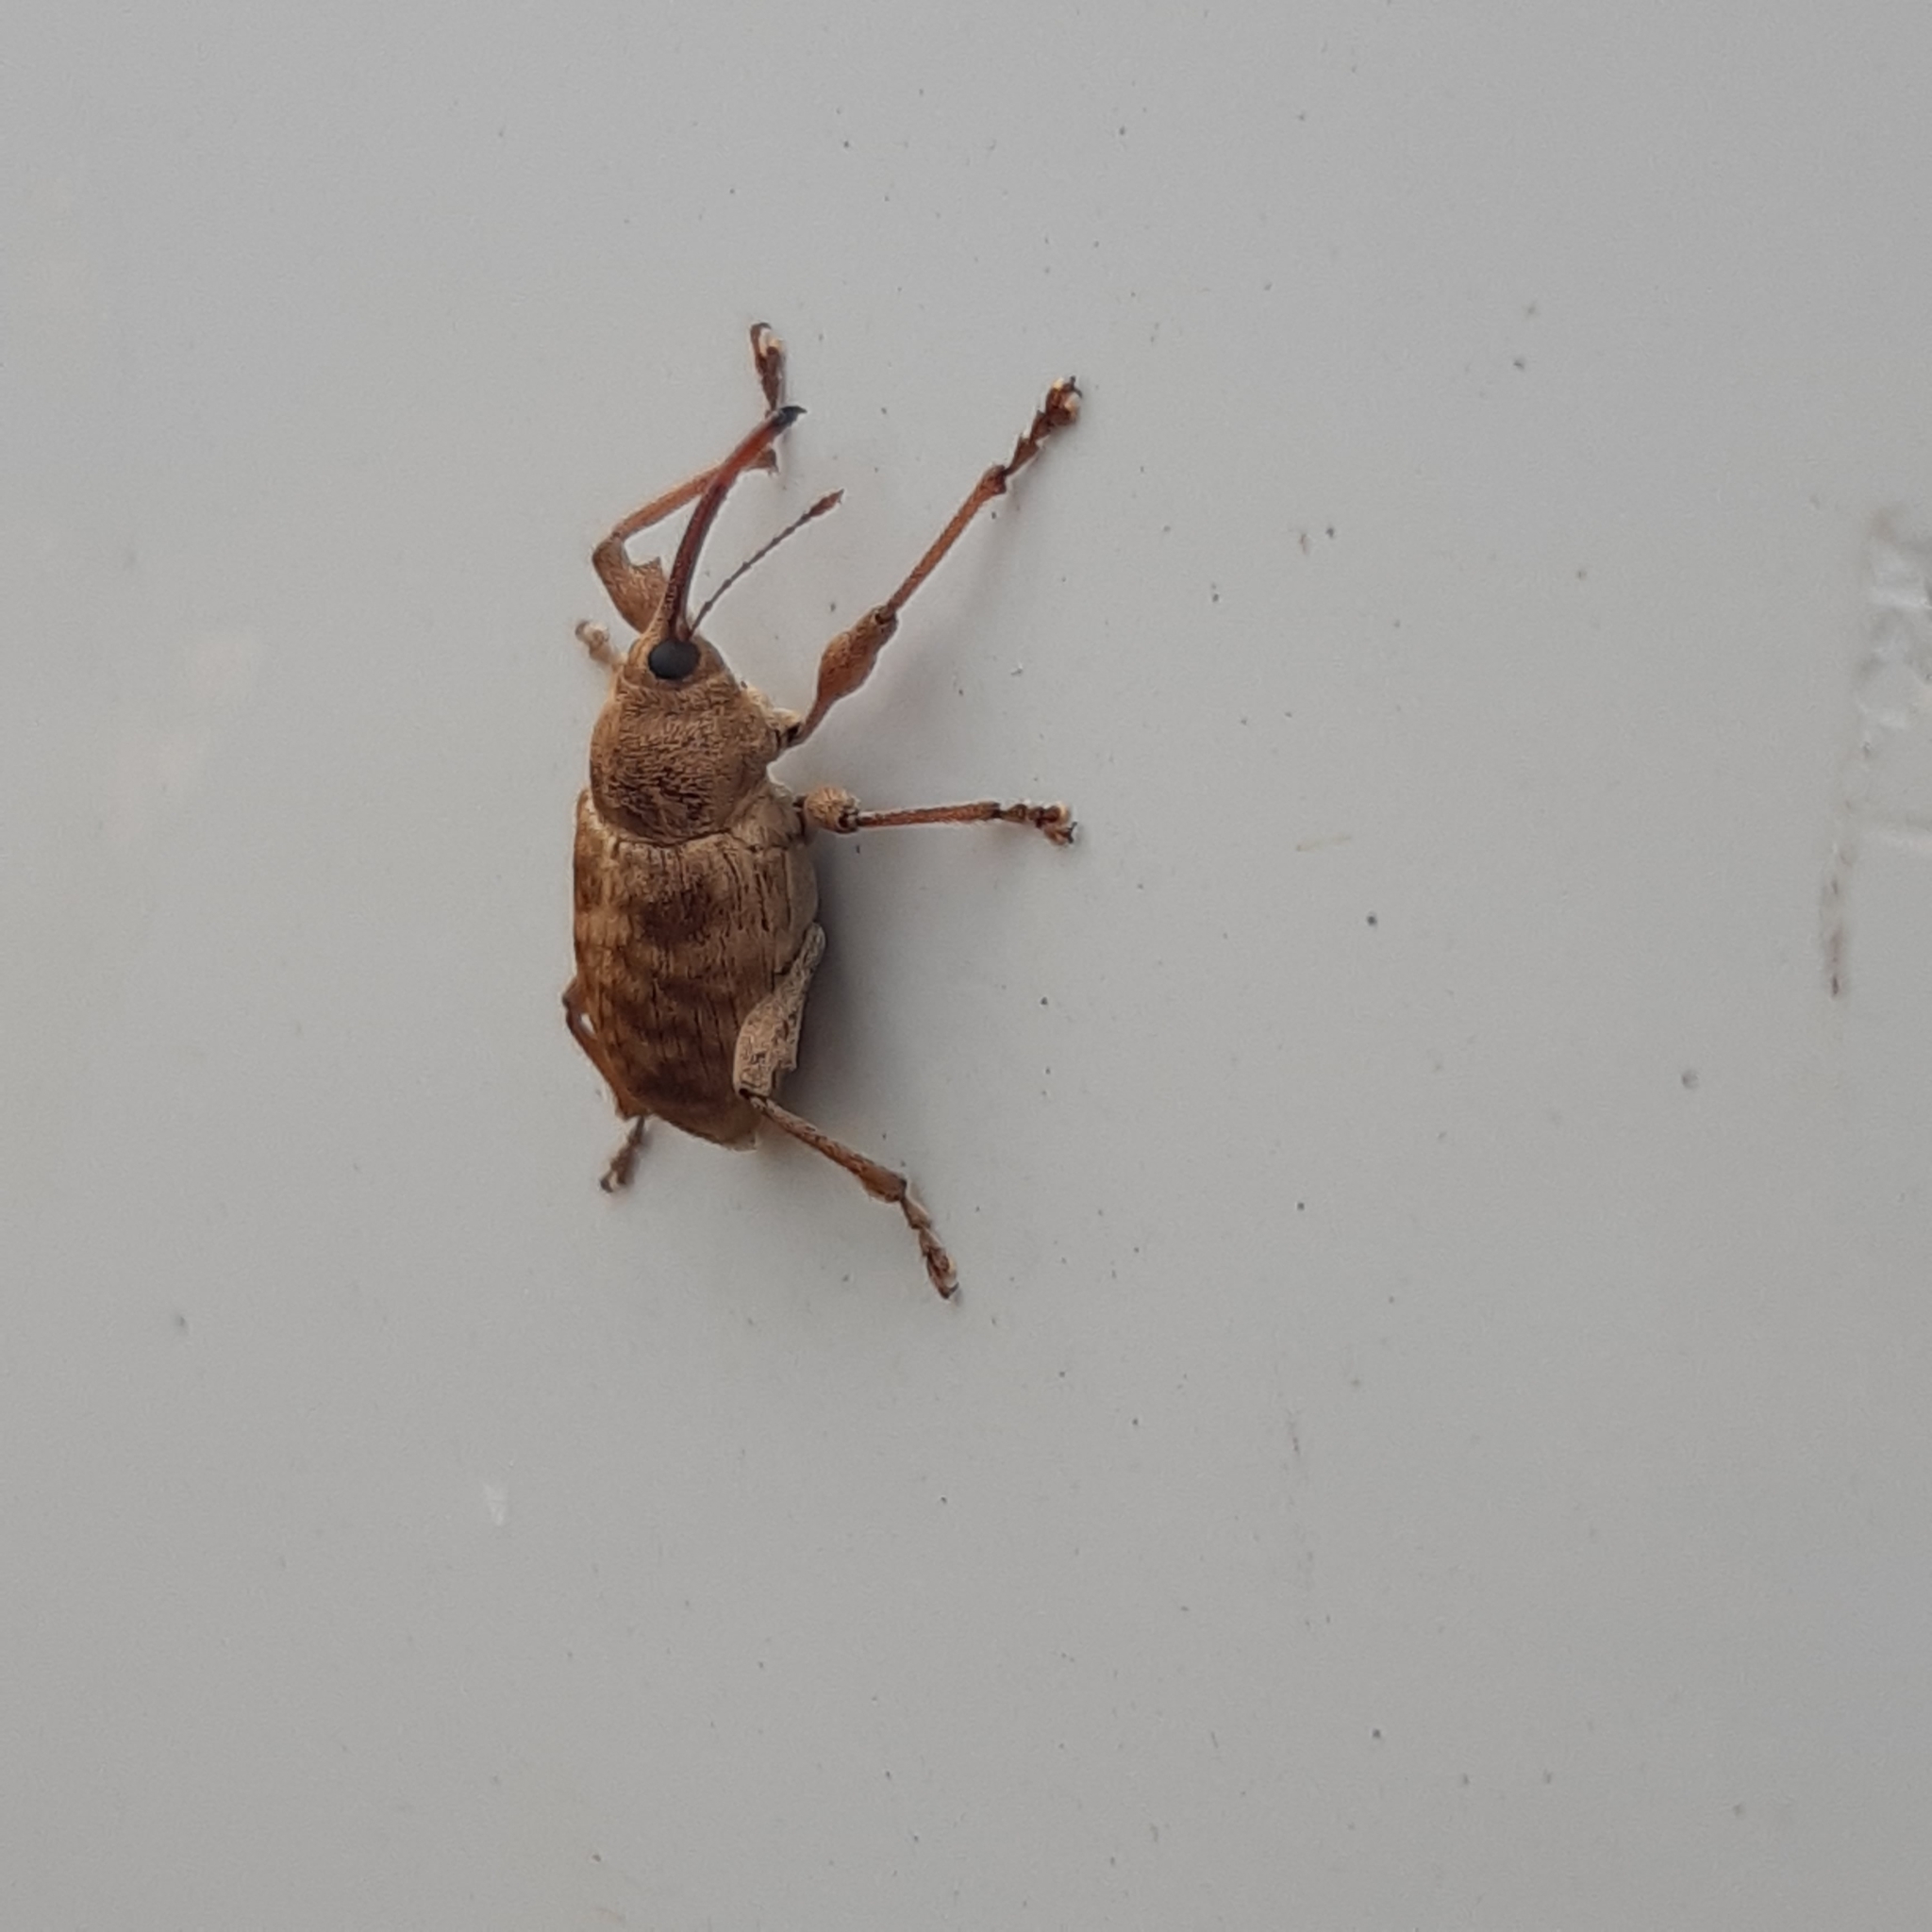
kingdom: Animalia
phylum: Arthropoda
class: Insecta
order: Coleoptera
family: Curculionidae
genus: Curculio
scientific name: Curculio elephas
